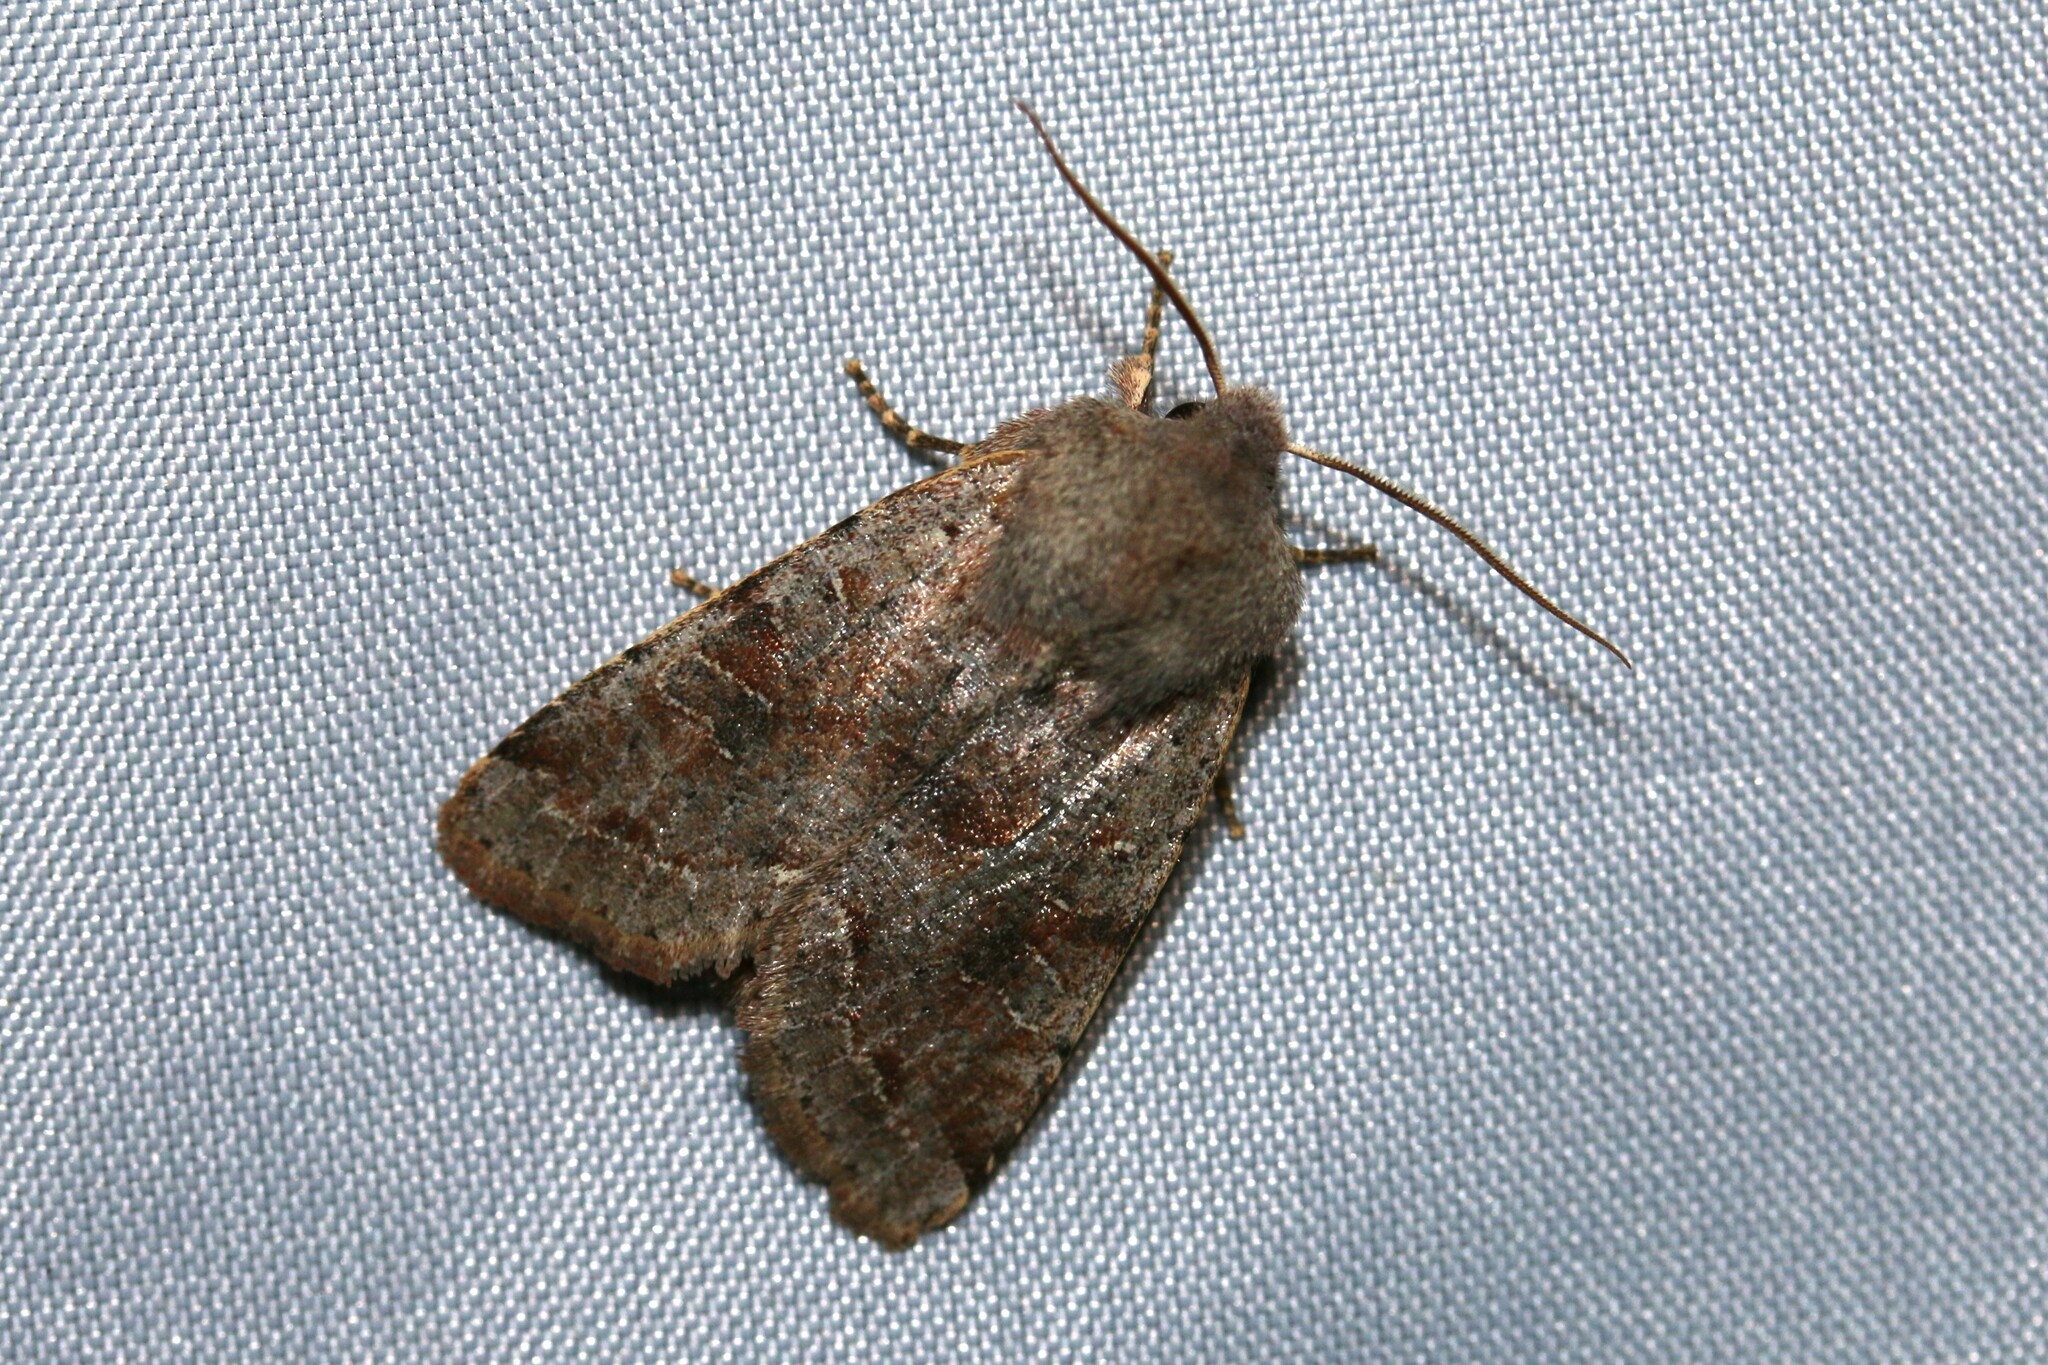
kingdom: Animalia
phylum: Arthropoda
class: Insecta
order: Lepidoptera
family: Noctuidae
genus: Orthosia
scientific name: Orthosia incerta
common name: Clouded drab
